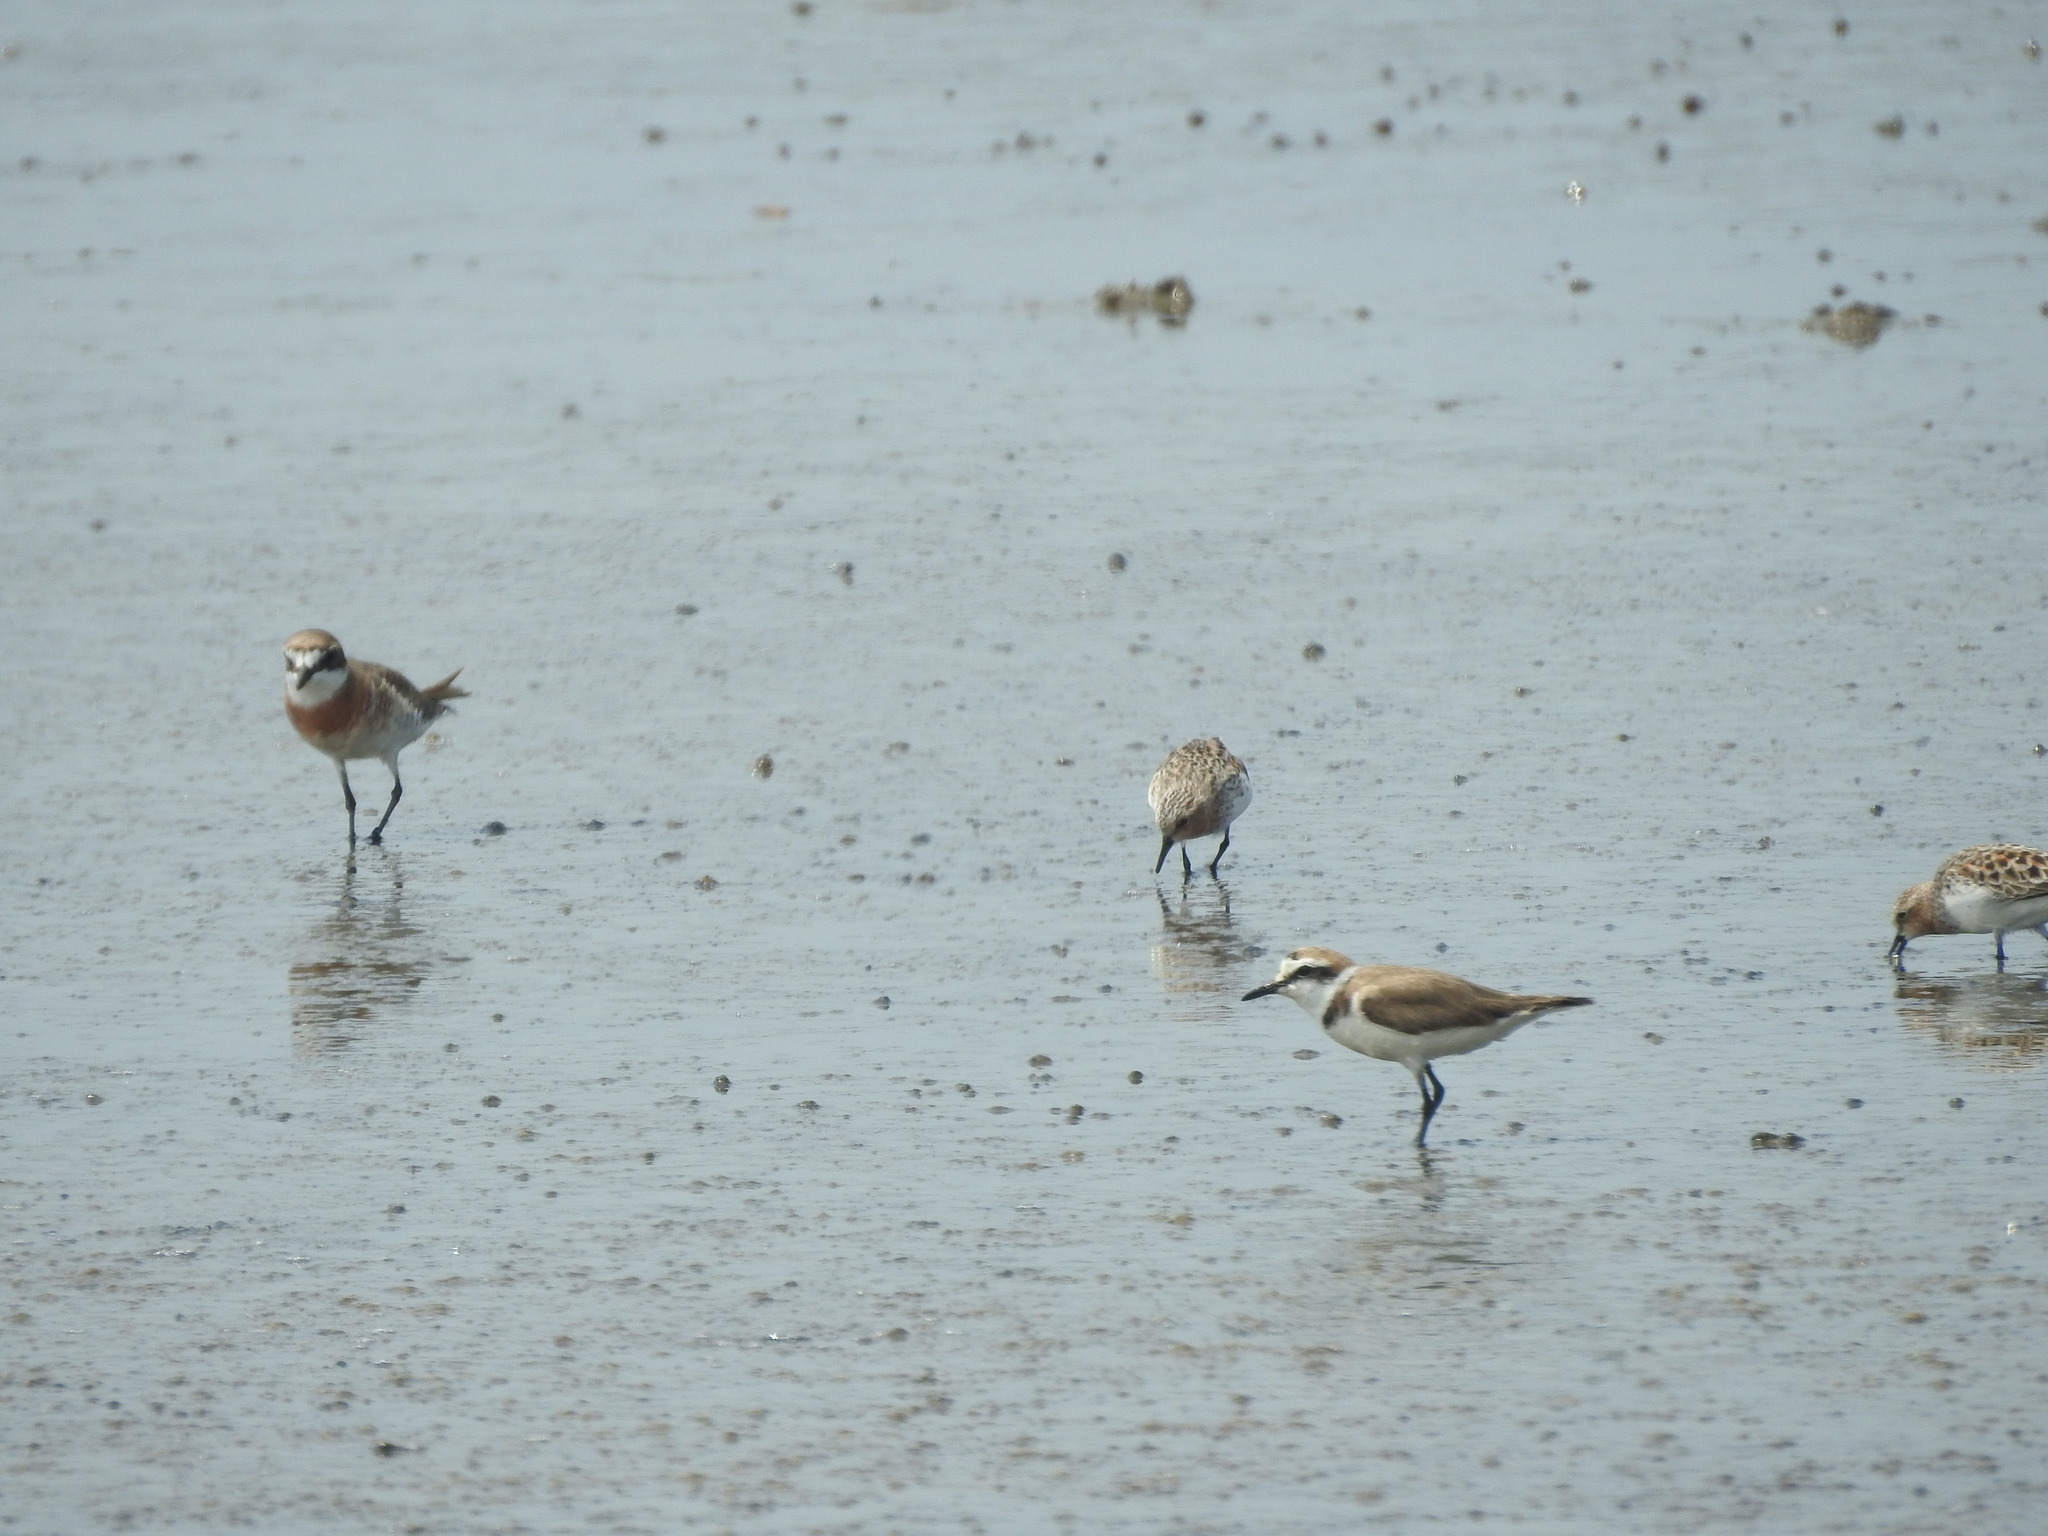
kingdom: Animalia
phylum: Chordata
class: Aves
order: Charadriiformes
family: Scolopacidae
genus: Calidris
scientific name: Calidris ruficollis
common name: Red-necked stint
